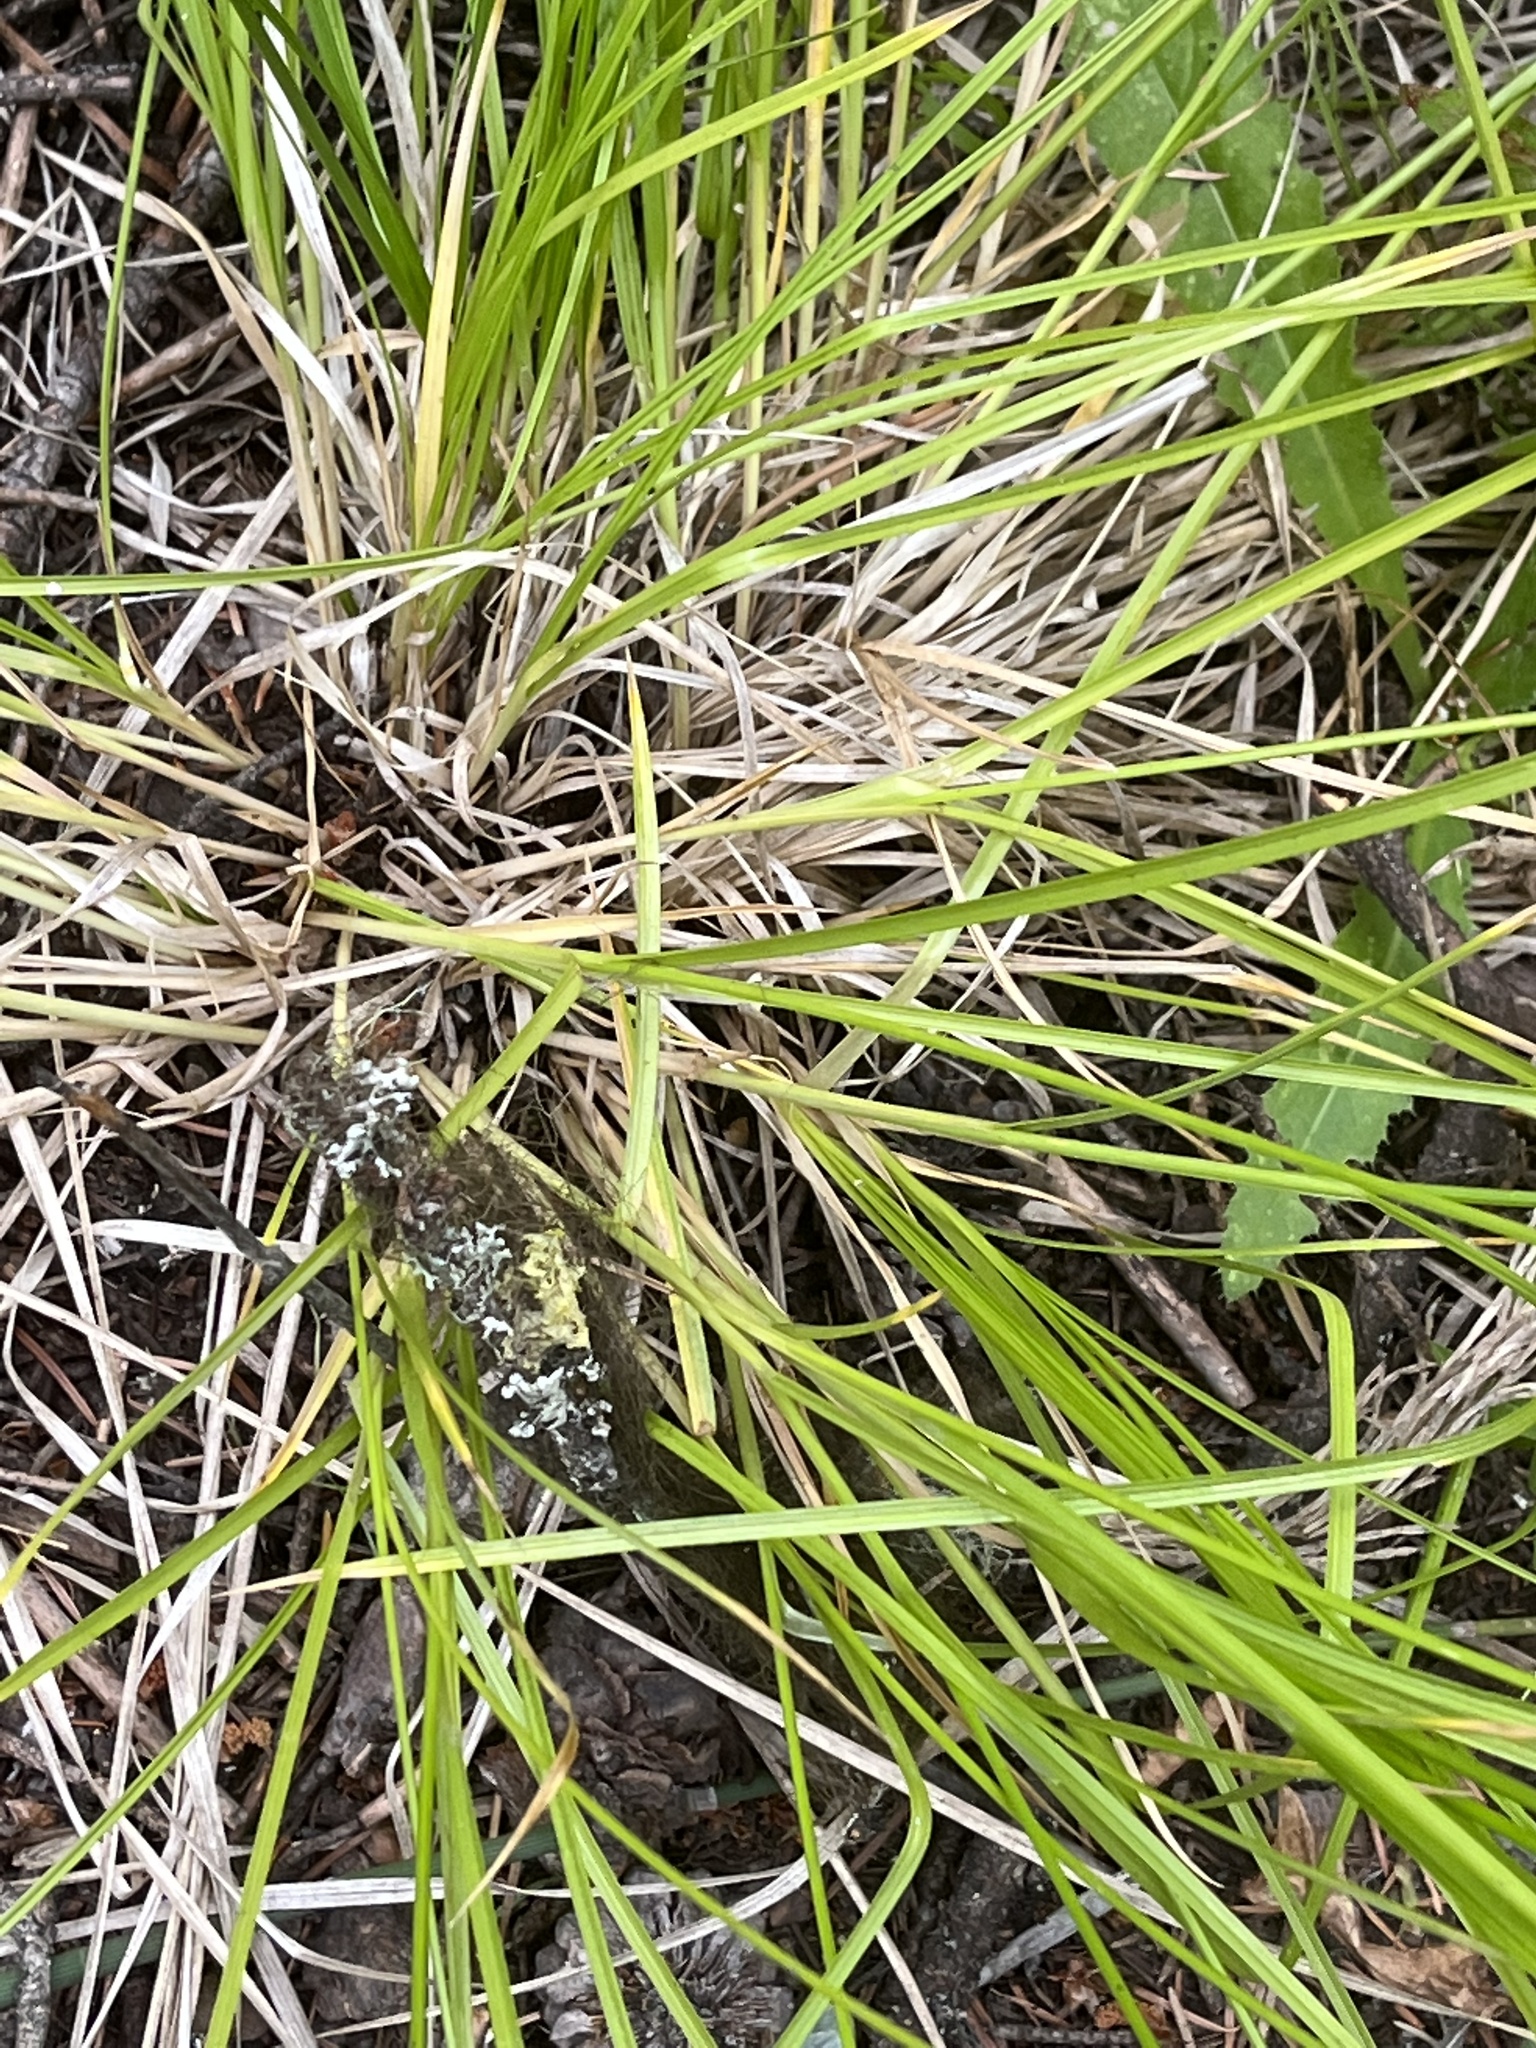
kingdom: Plantae
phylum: Tracheophyta
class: Liliopsida
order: Poales
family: Cyperaceae
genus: Carex
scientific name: Carex stipata
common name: Awl-fruited sedge
